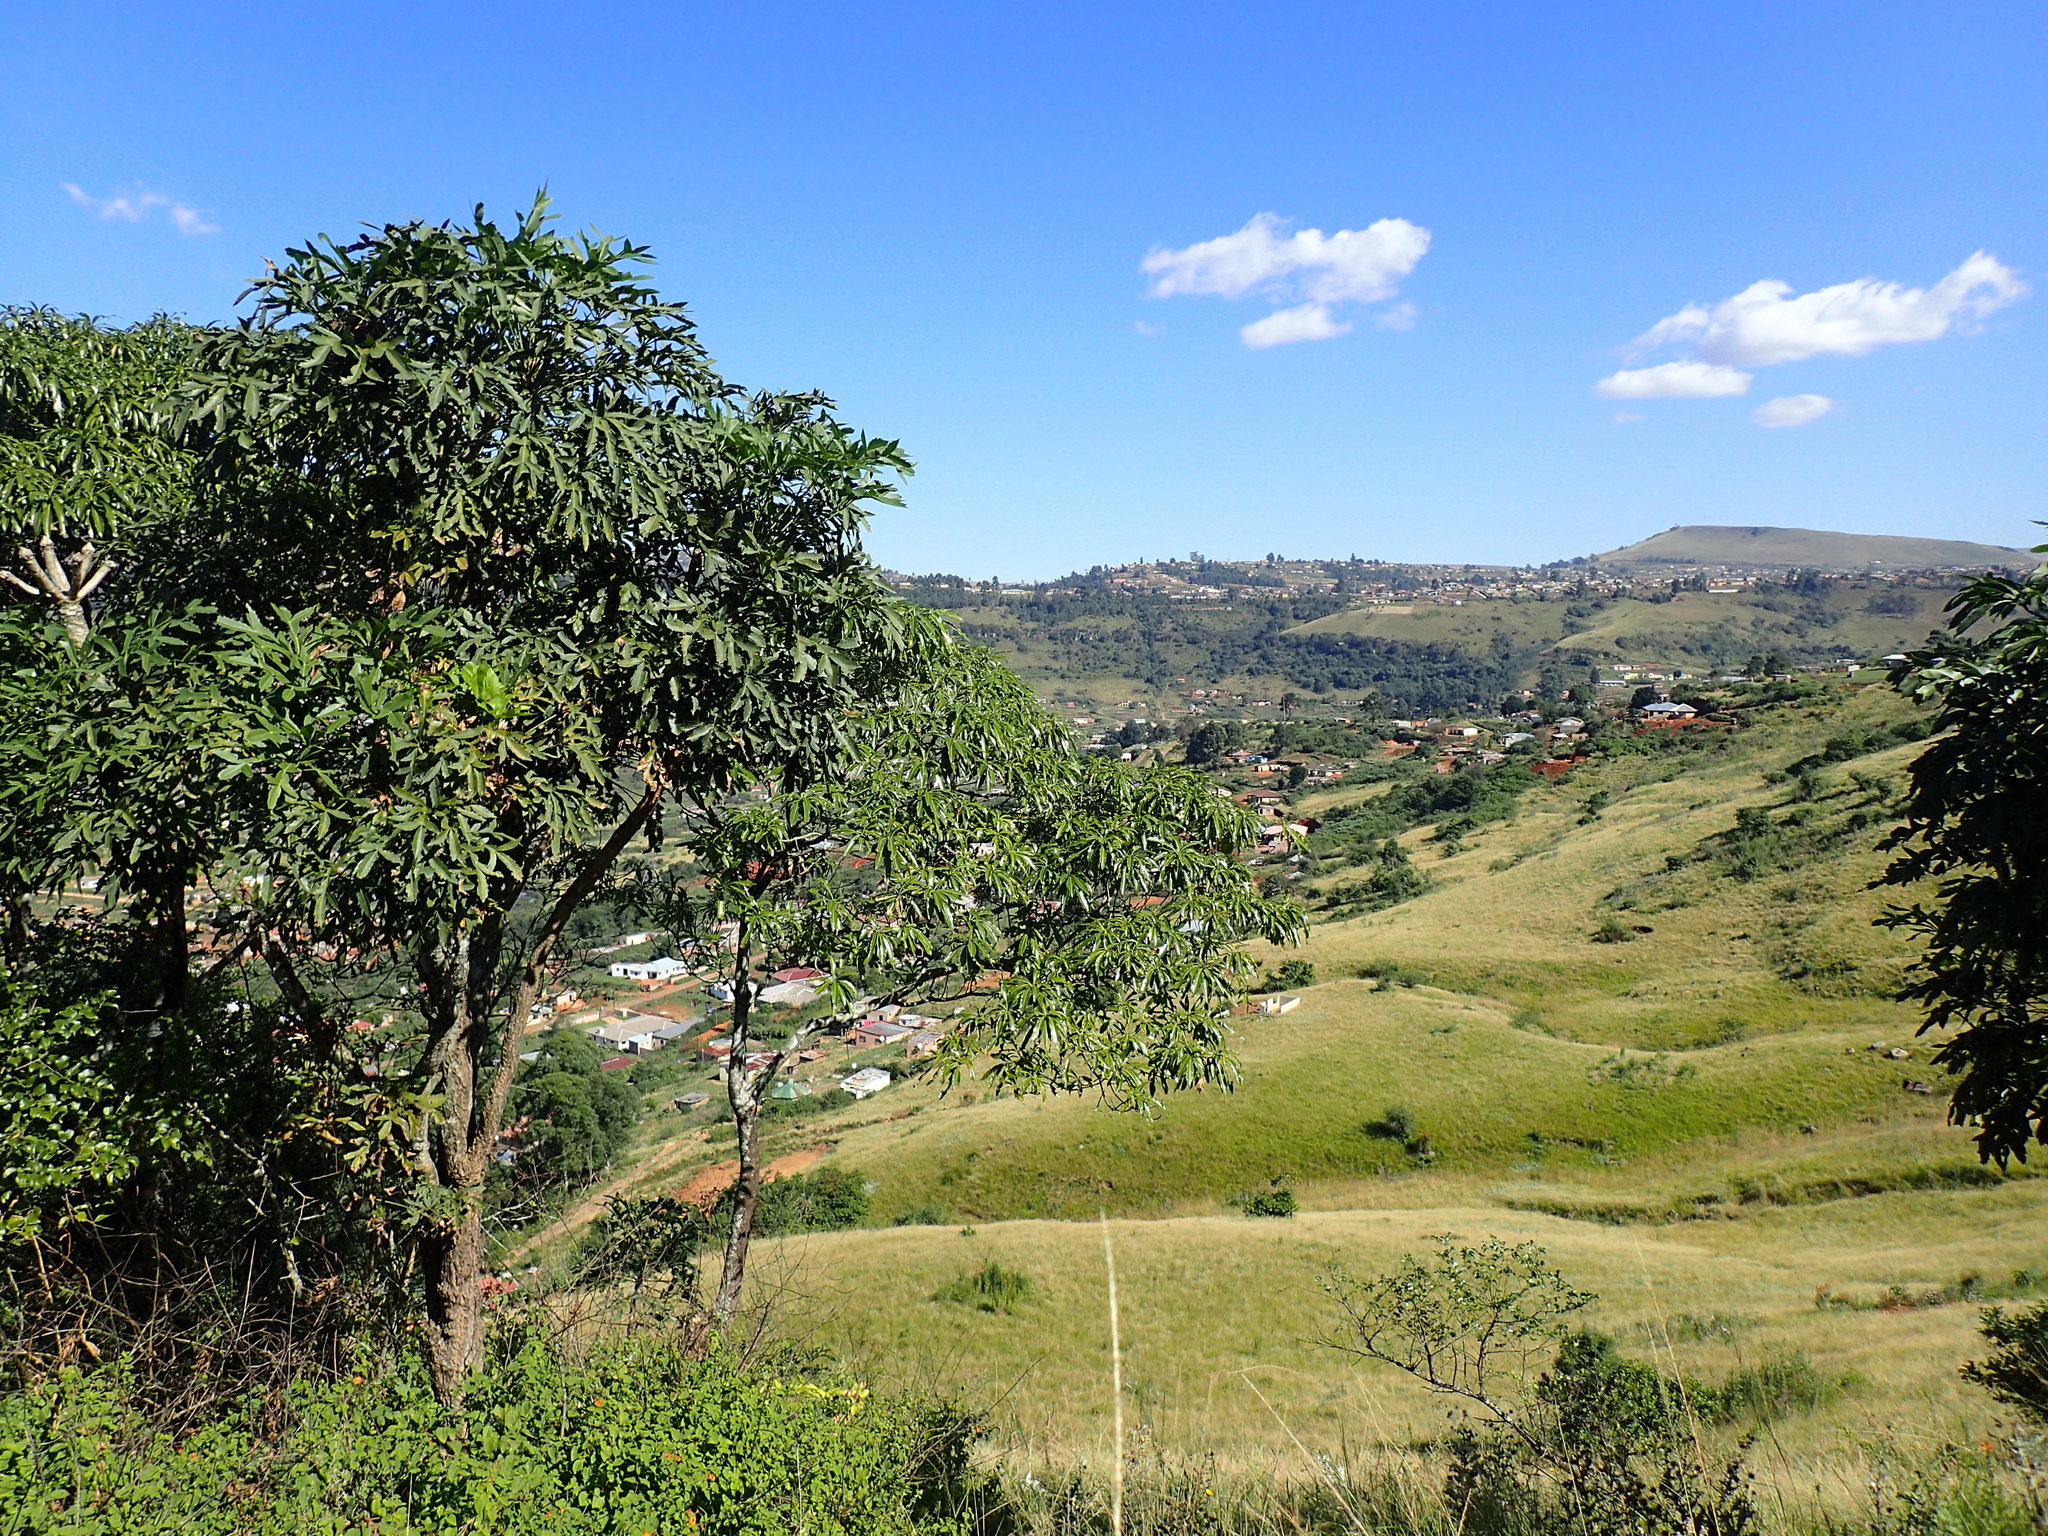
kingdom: Plantae
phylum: Tracheophyta
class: Magnoliopsida
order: Gentianales
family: Apocynaceae
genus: Rauvolfia
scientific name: Rauvolfia caffra
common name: Quininetree
